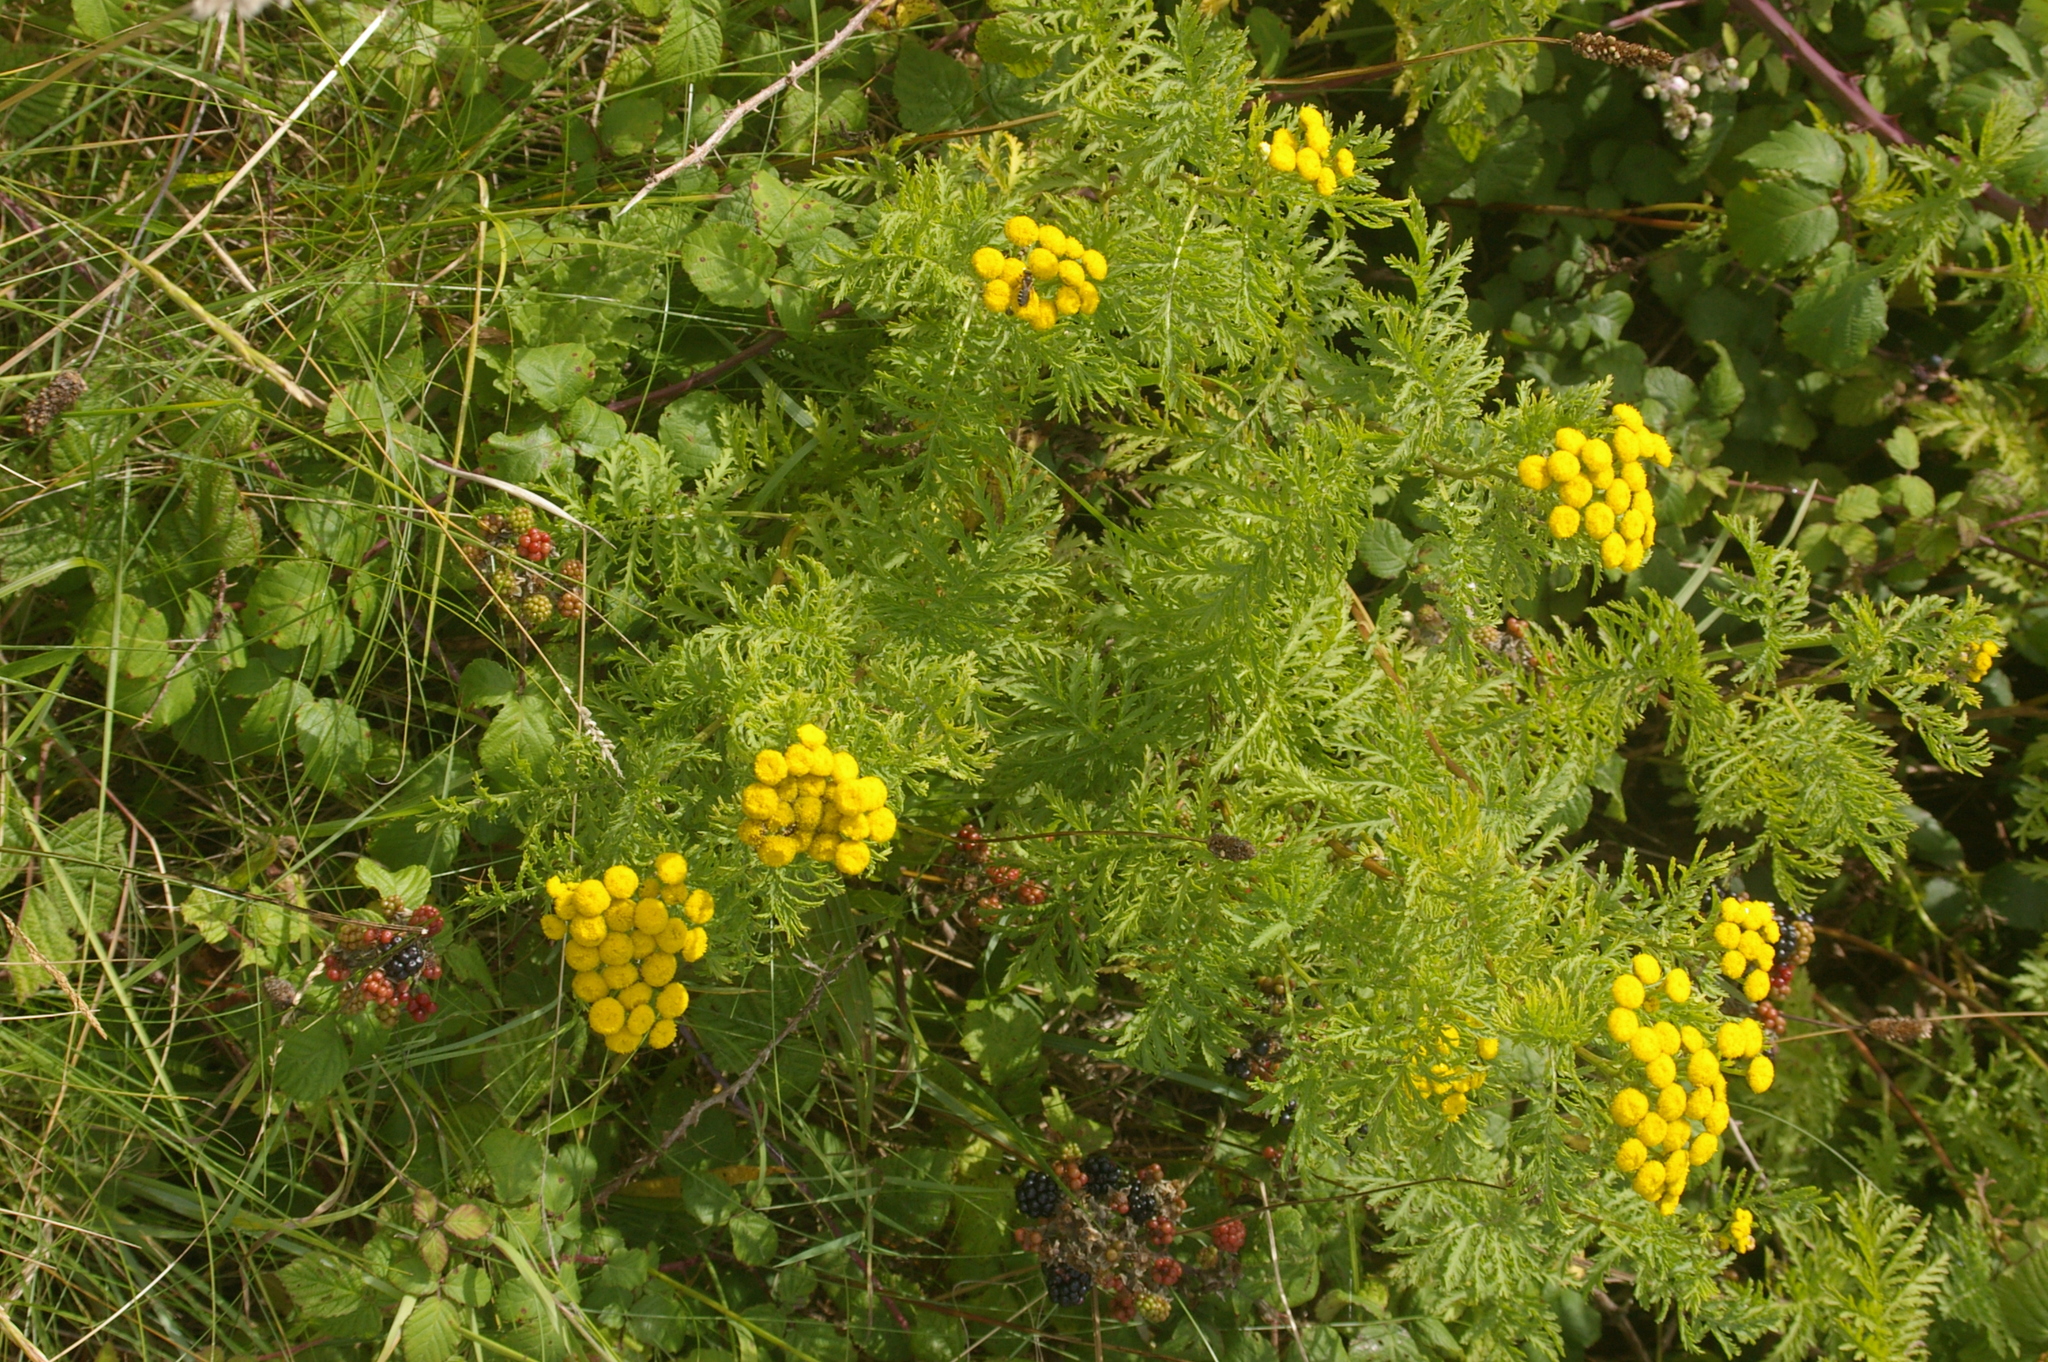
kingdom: Plantae
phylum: Tracheophyta
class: Magnoliopsida
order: Asterales
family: Asteraceae
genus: Tanacetum
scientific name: Tanacetum vulgare
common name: Common tansy
